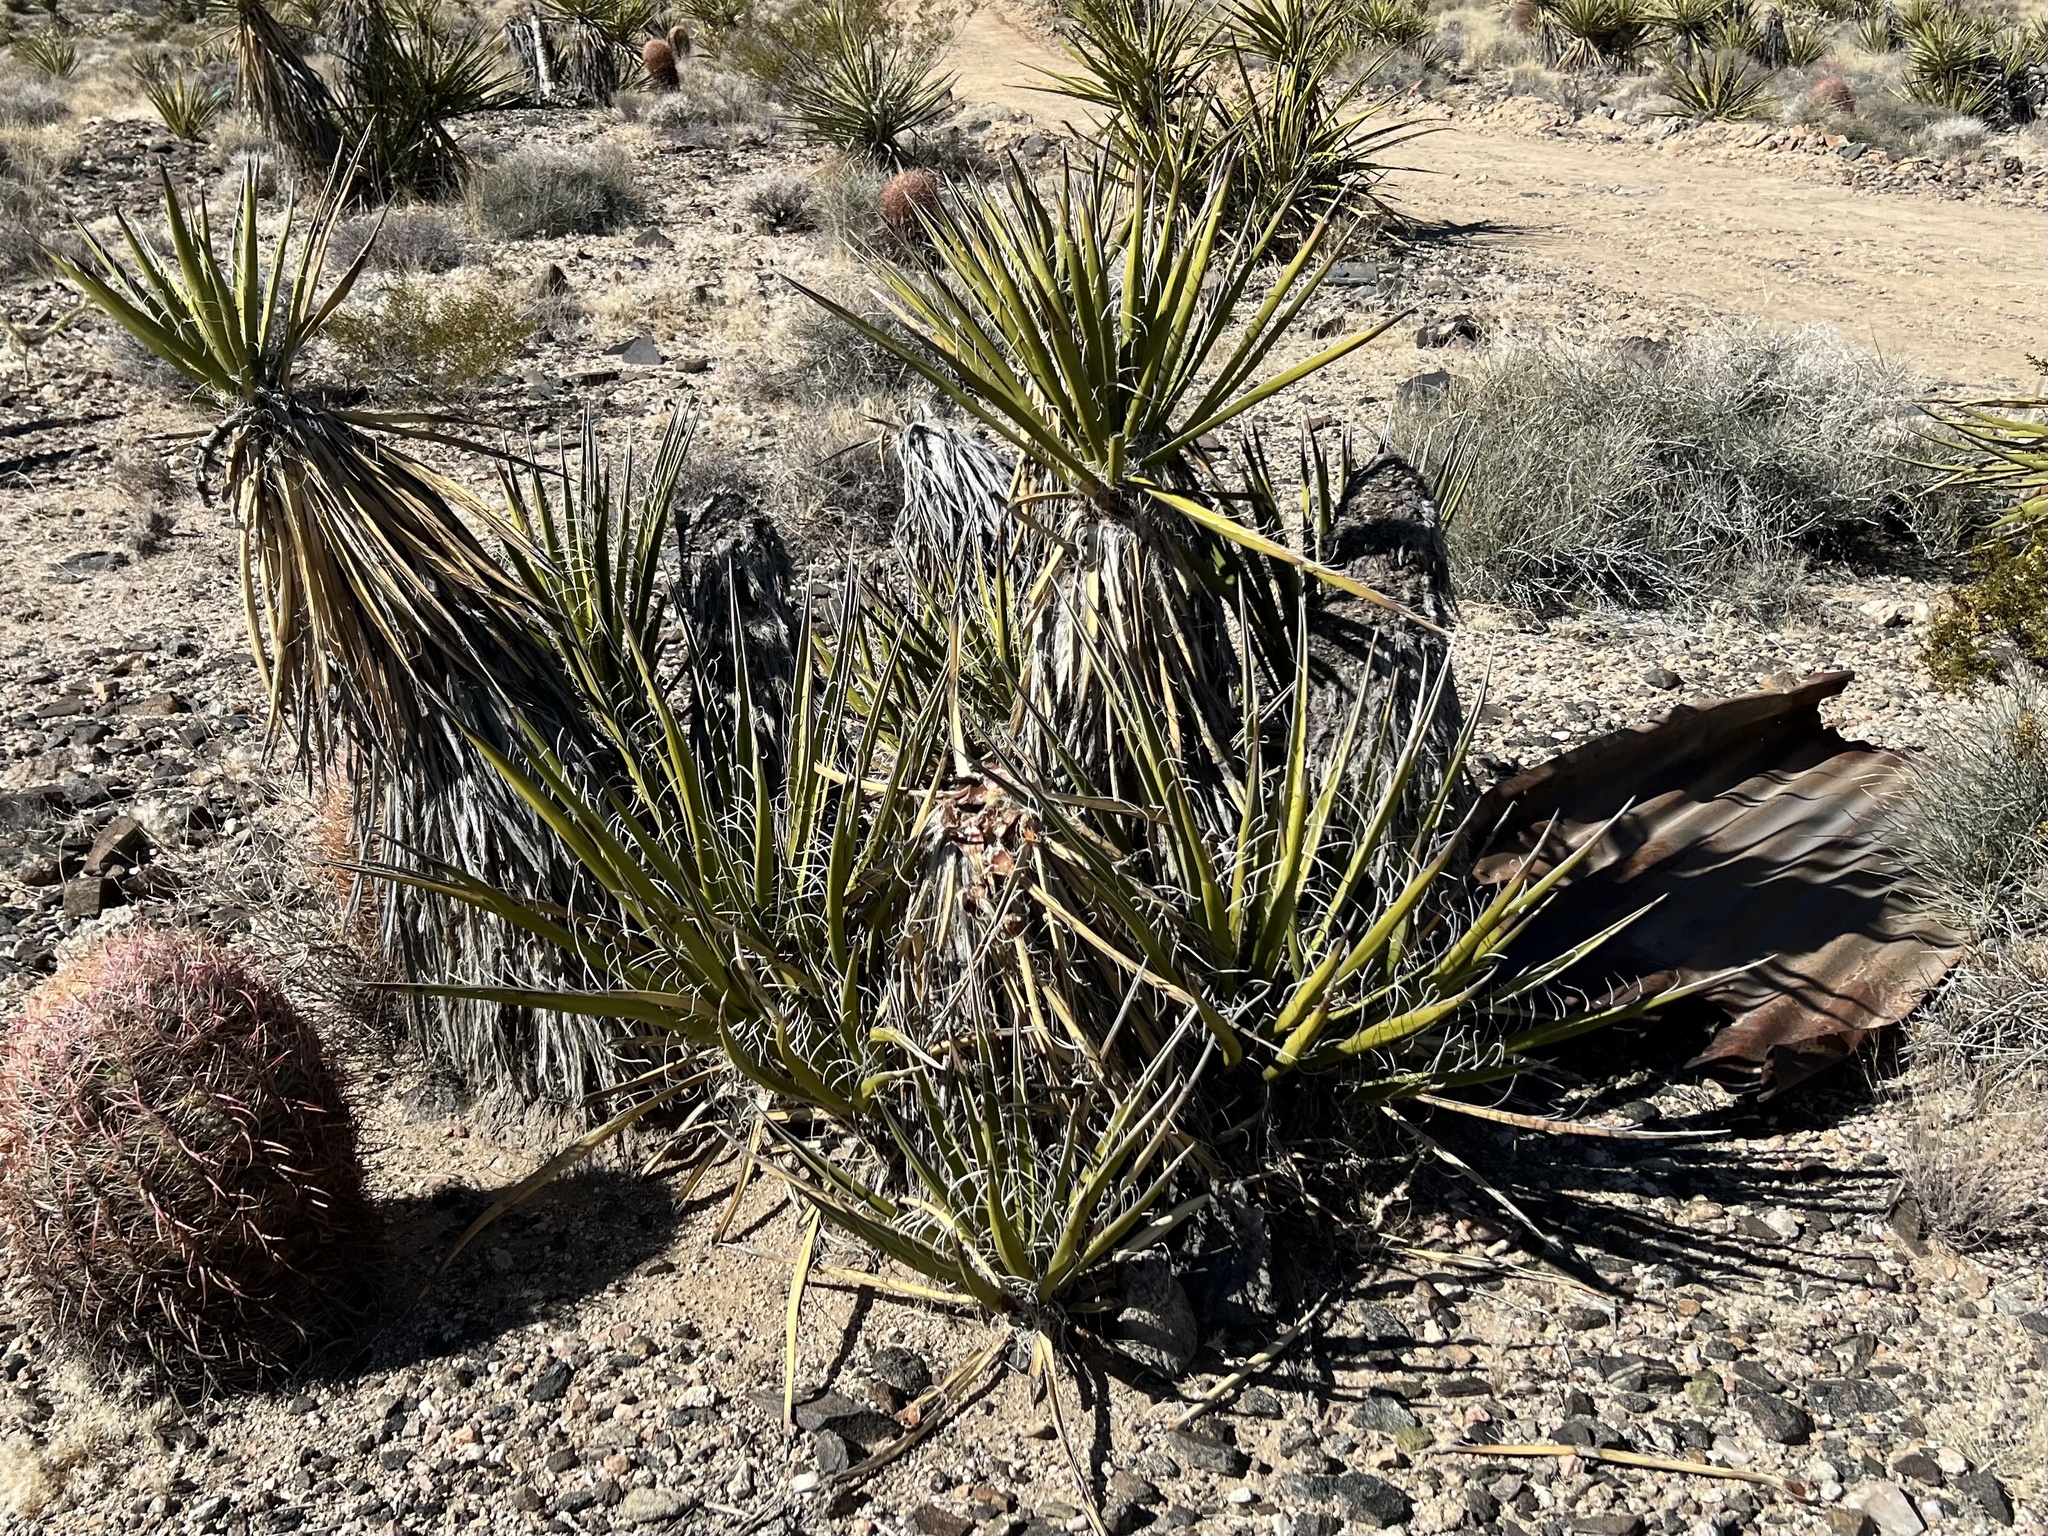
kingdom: Plantae
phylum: Tracheophyta
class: Liliopsida
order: Asparagales
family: Asparagaceae
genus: Yucca
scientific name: Yucca schidigera
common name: Mojave yucca
